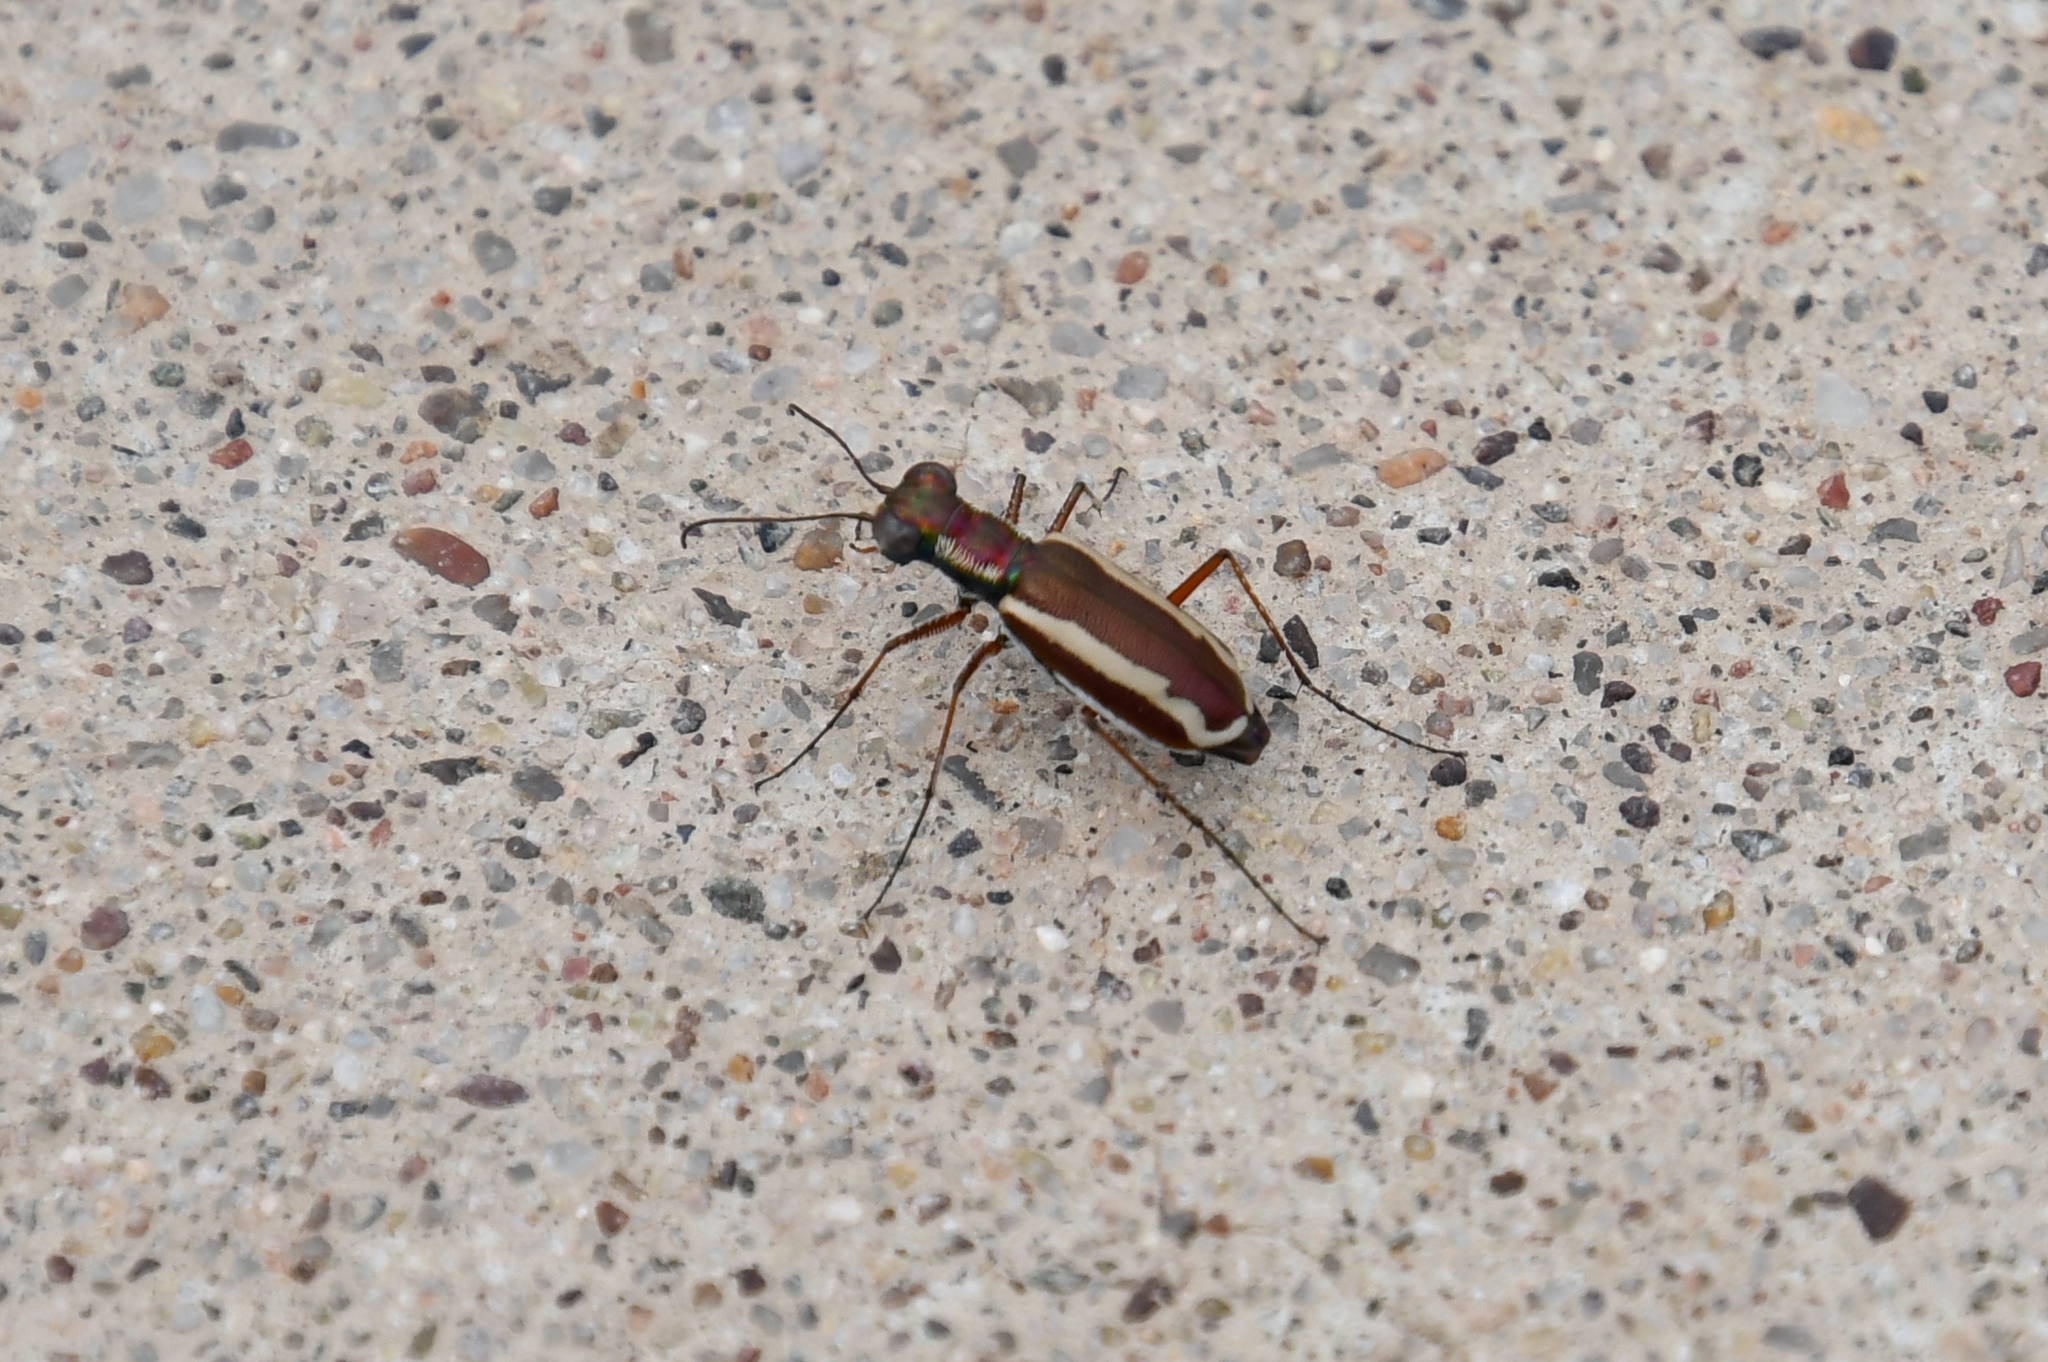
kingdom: Animalia
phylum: Arthropoda
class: Insecta
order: Coleoptera
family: Carabidae
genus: Cylindera
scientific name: Cylindera lemniscata
